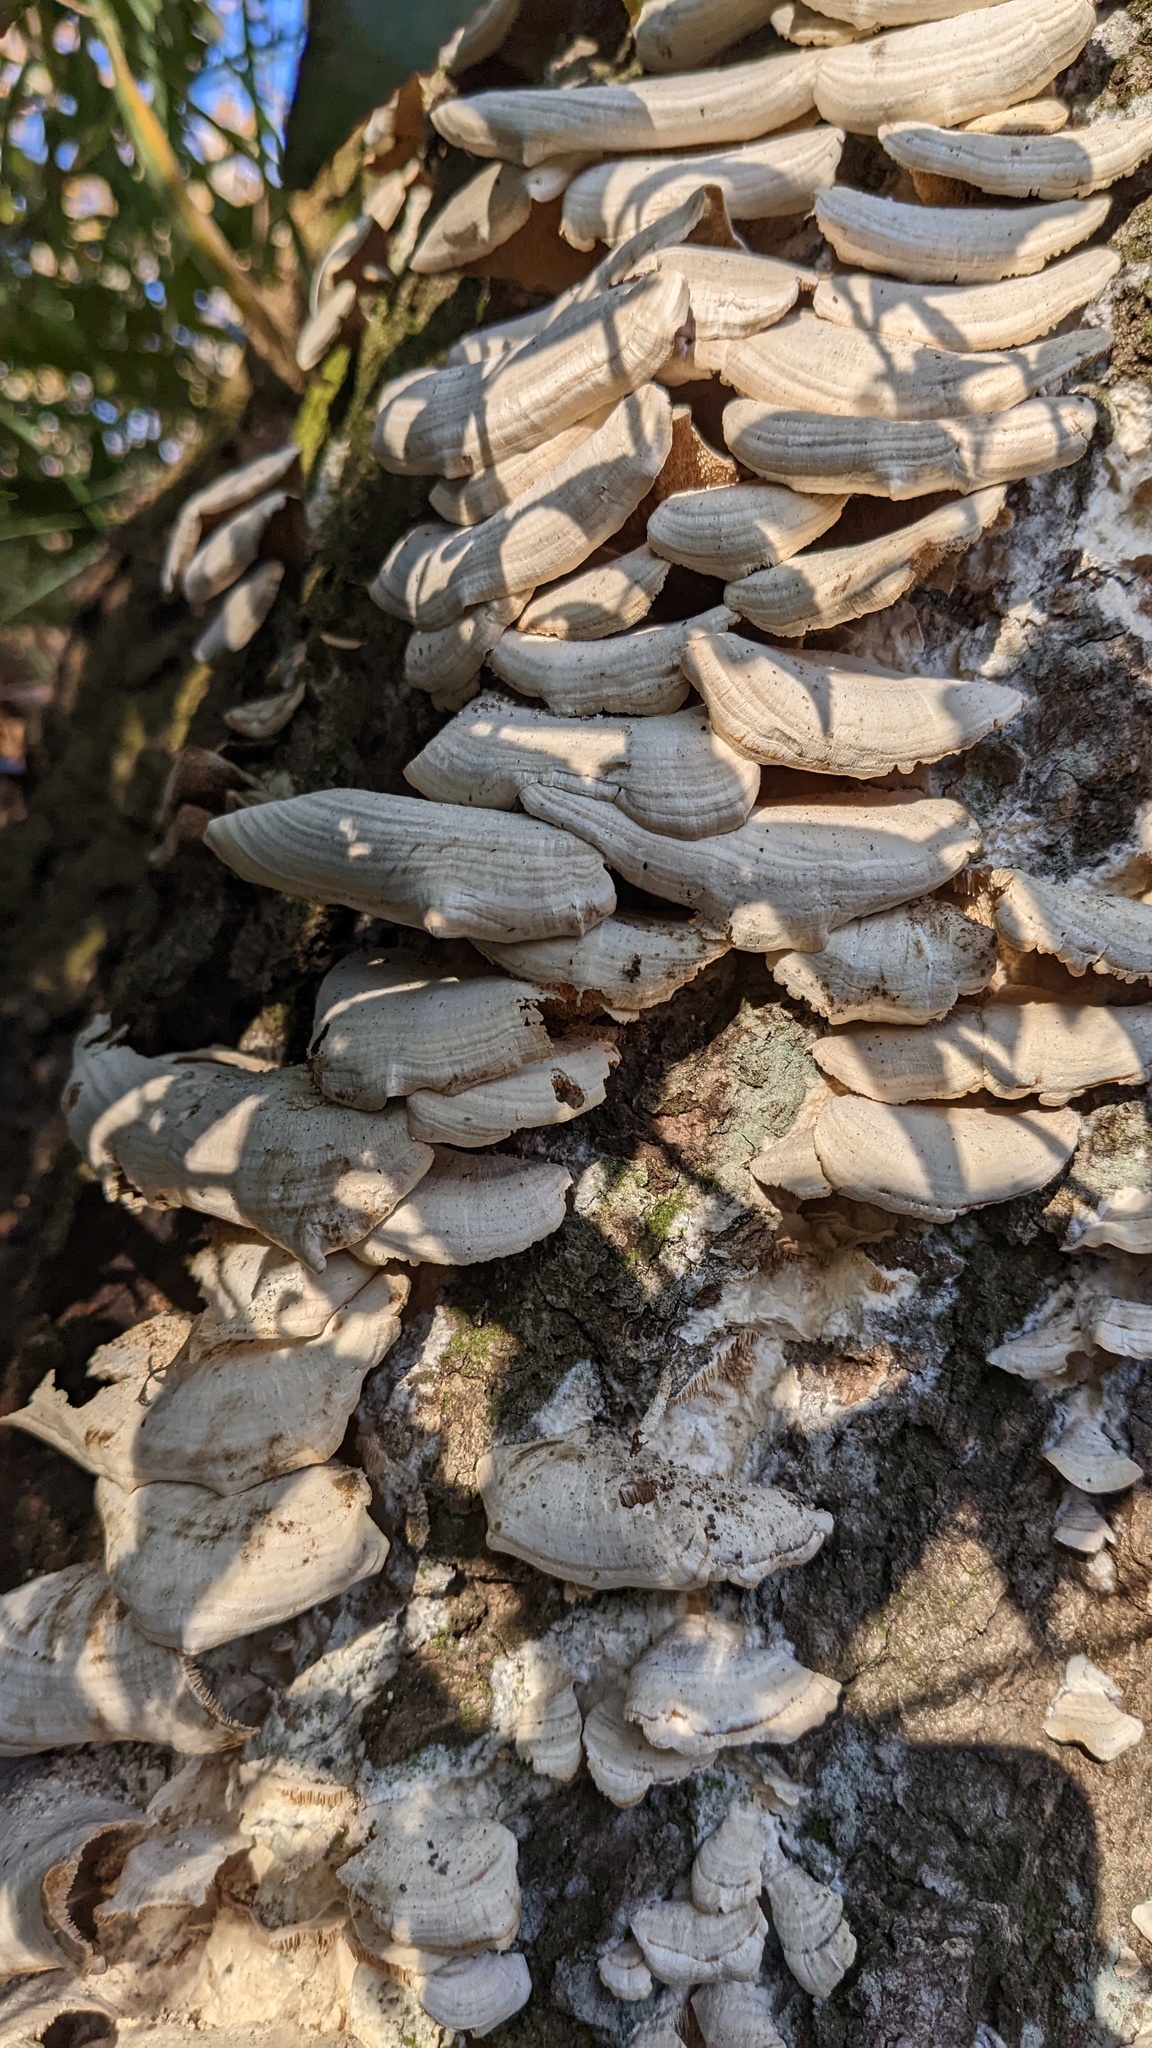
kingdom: Fungi
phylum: Basidiomycota
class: Agaricomycetes
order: Hymenochaetales
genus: Trichaptum
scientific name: Trichaptum biforme
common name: Violet-toothed polypore
